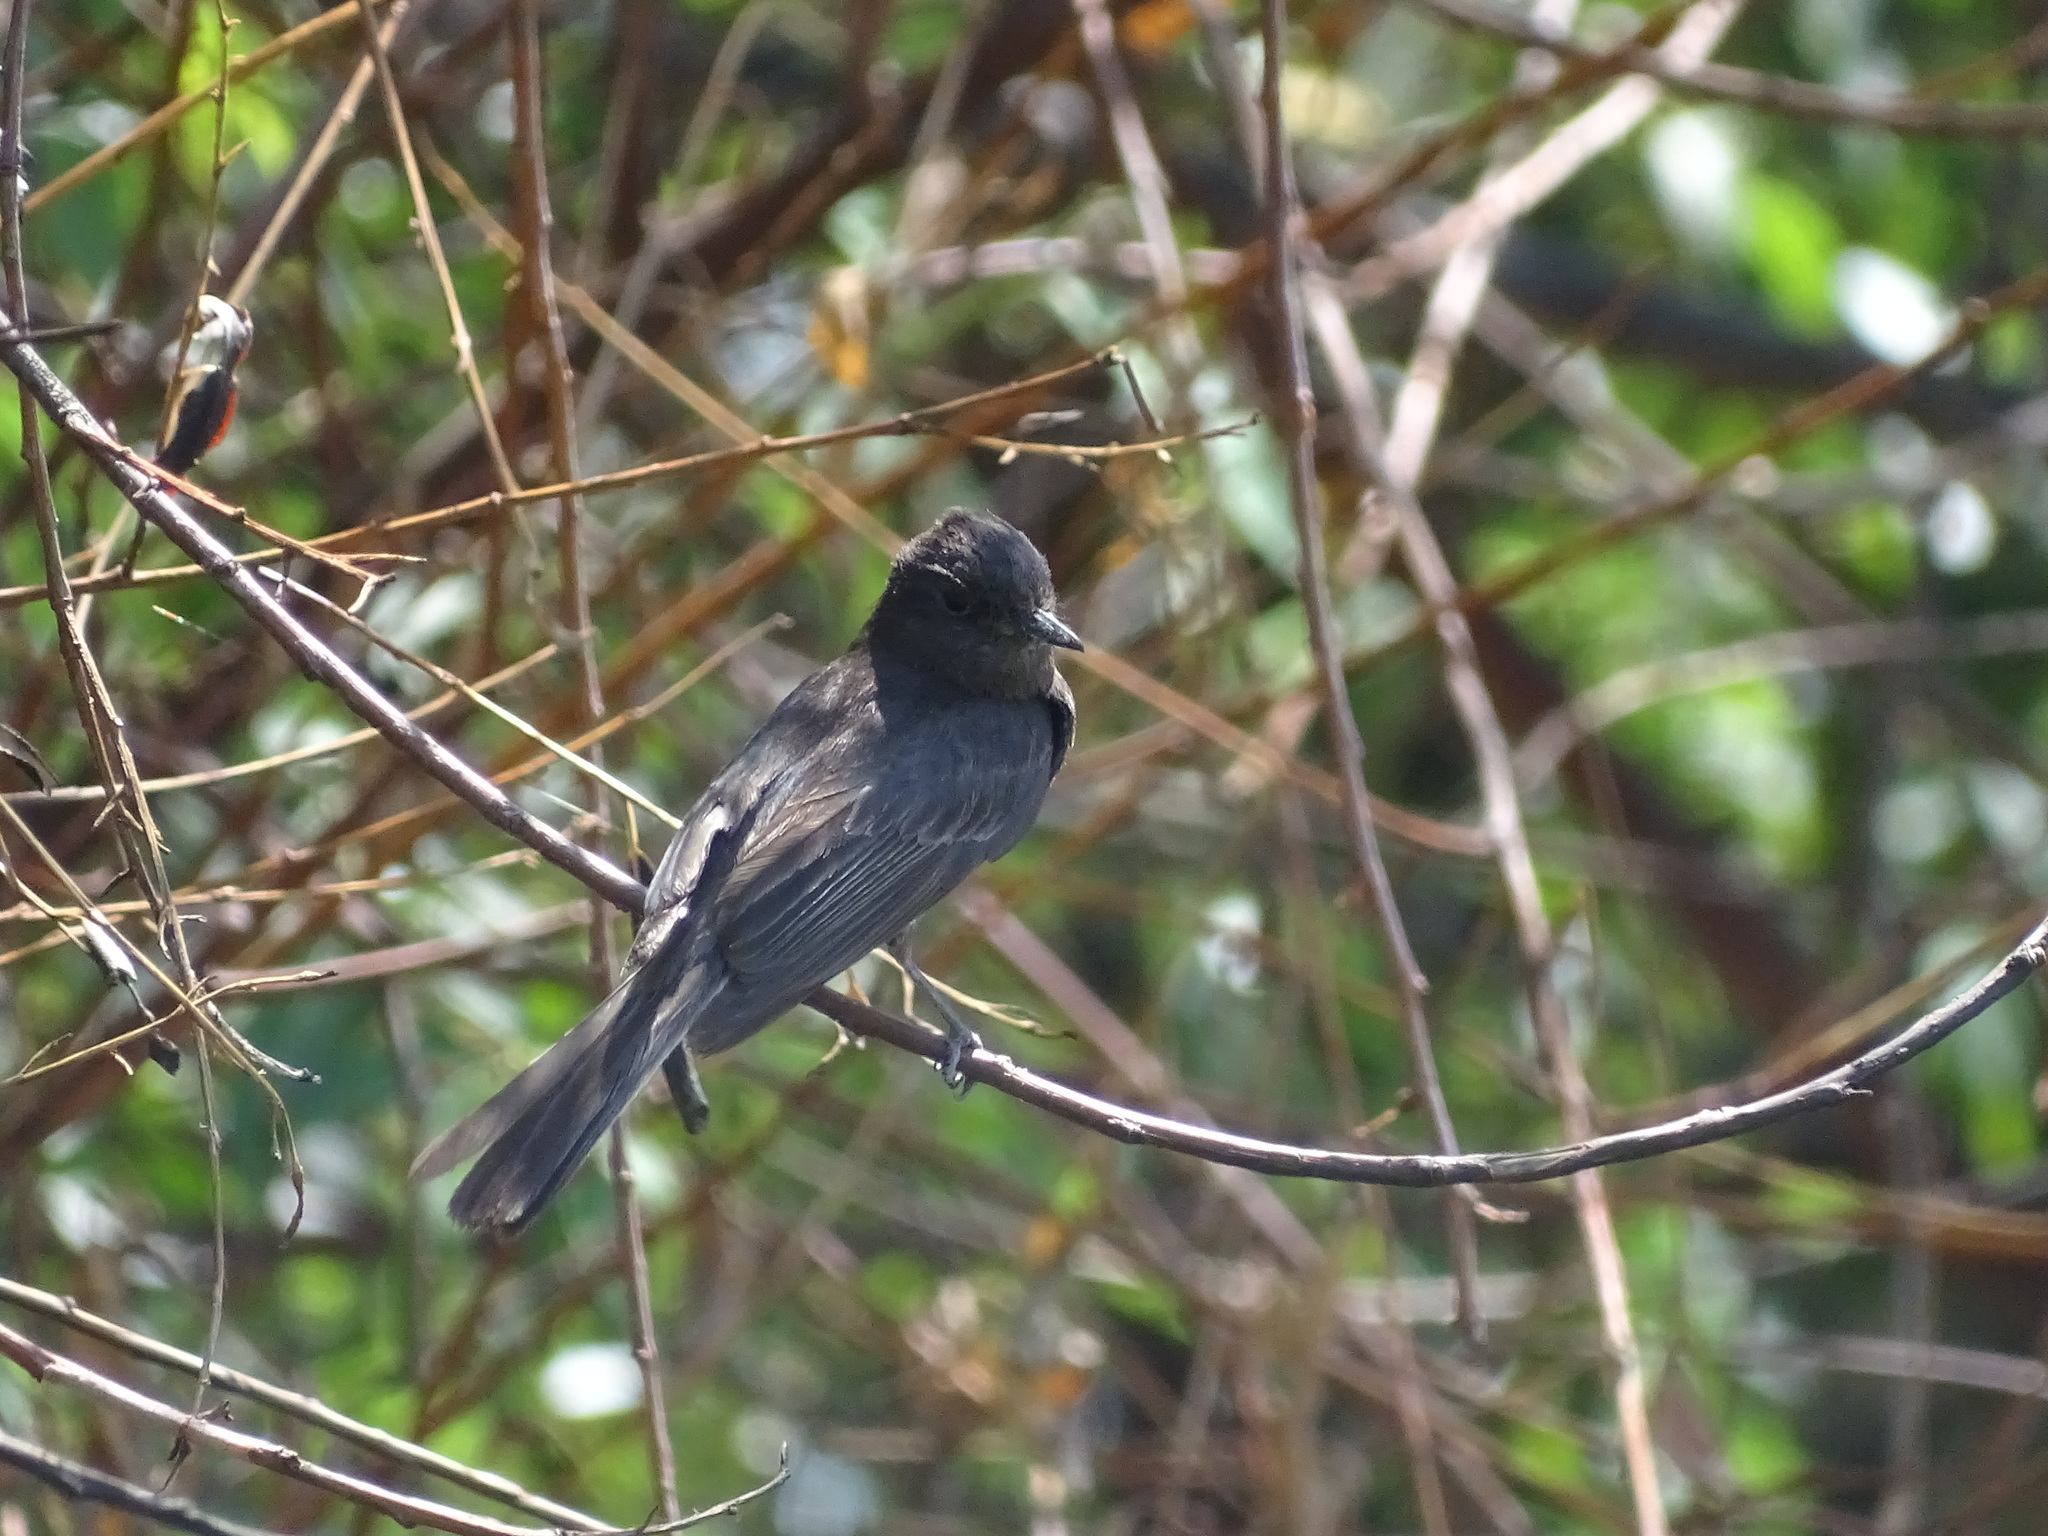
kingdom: Animalia
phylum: Chordata
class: Aves
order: Passeriformes
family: Tyrannidae
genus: Sayornis
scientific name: Sayornis nigricans
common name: Black phoebe
